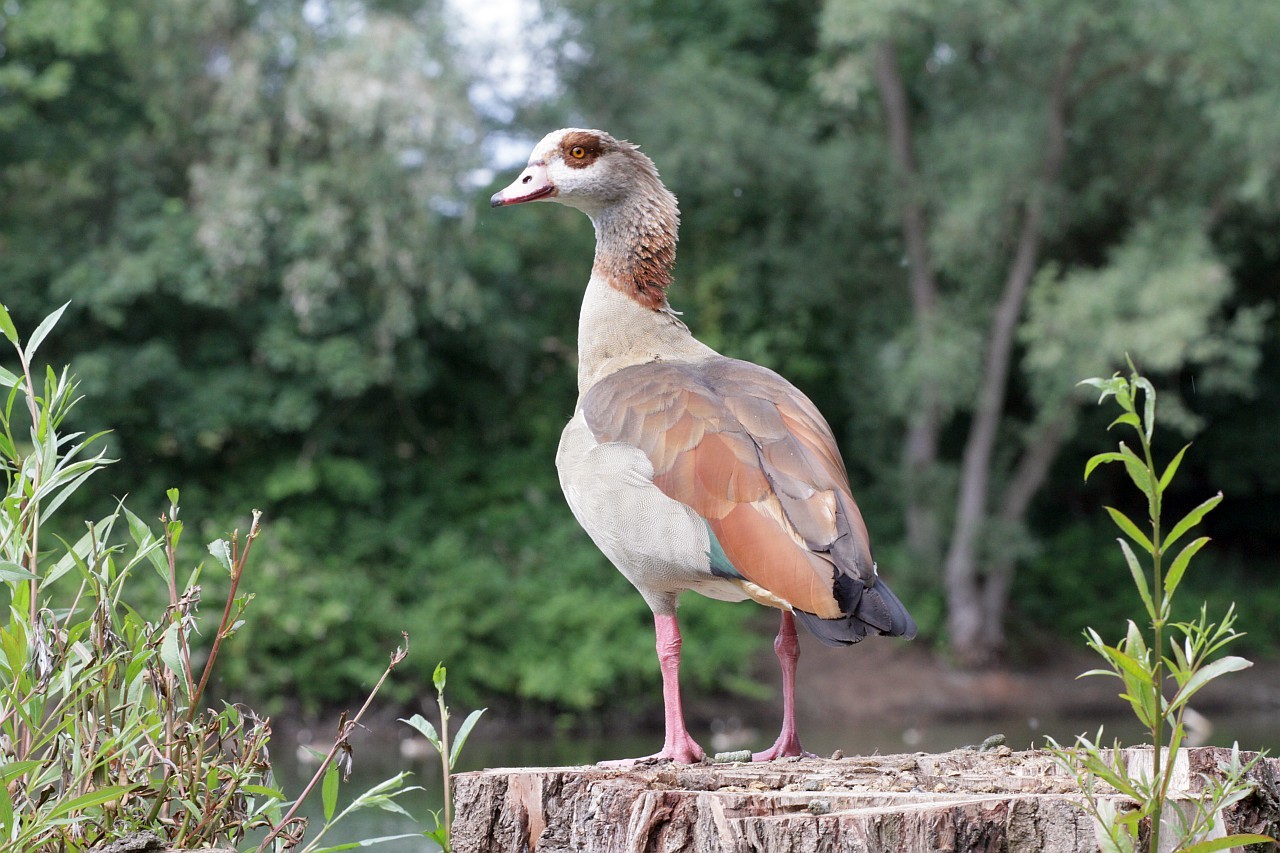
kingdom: Animalia
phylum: Chordata
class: Aves
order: Anseriformes
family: Anatidae
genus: Alopochen
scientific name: Alopochen aegyptiaca
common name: Egyptian goose
